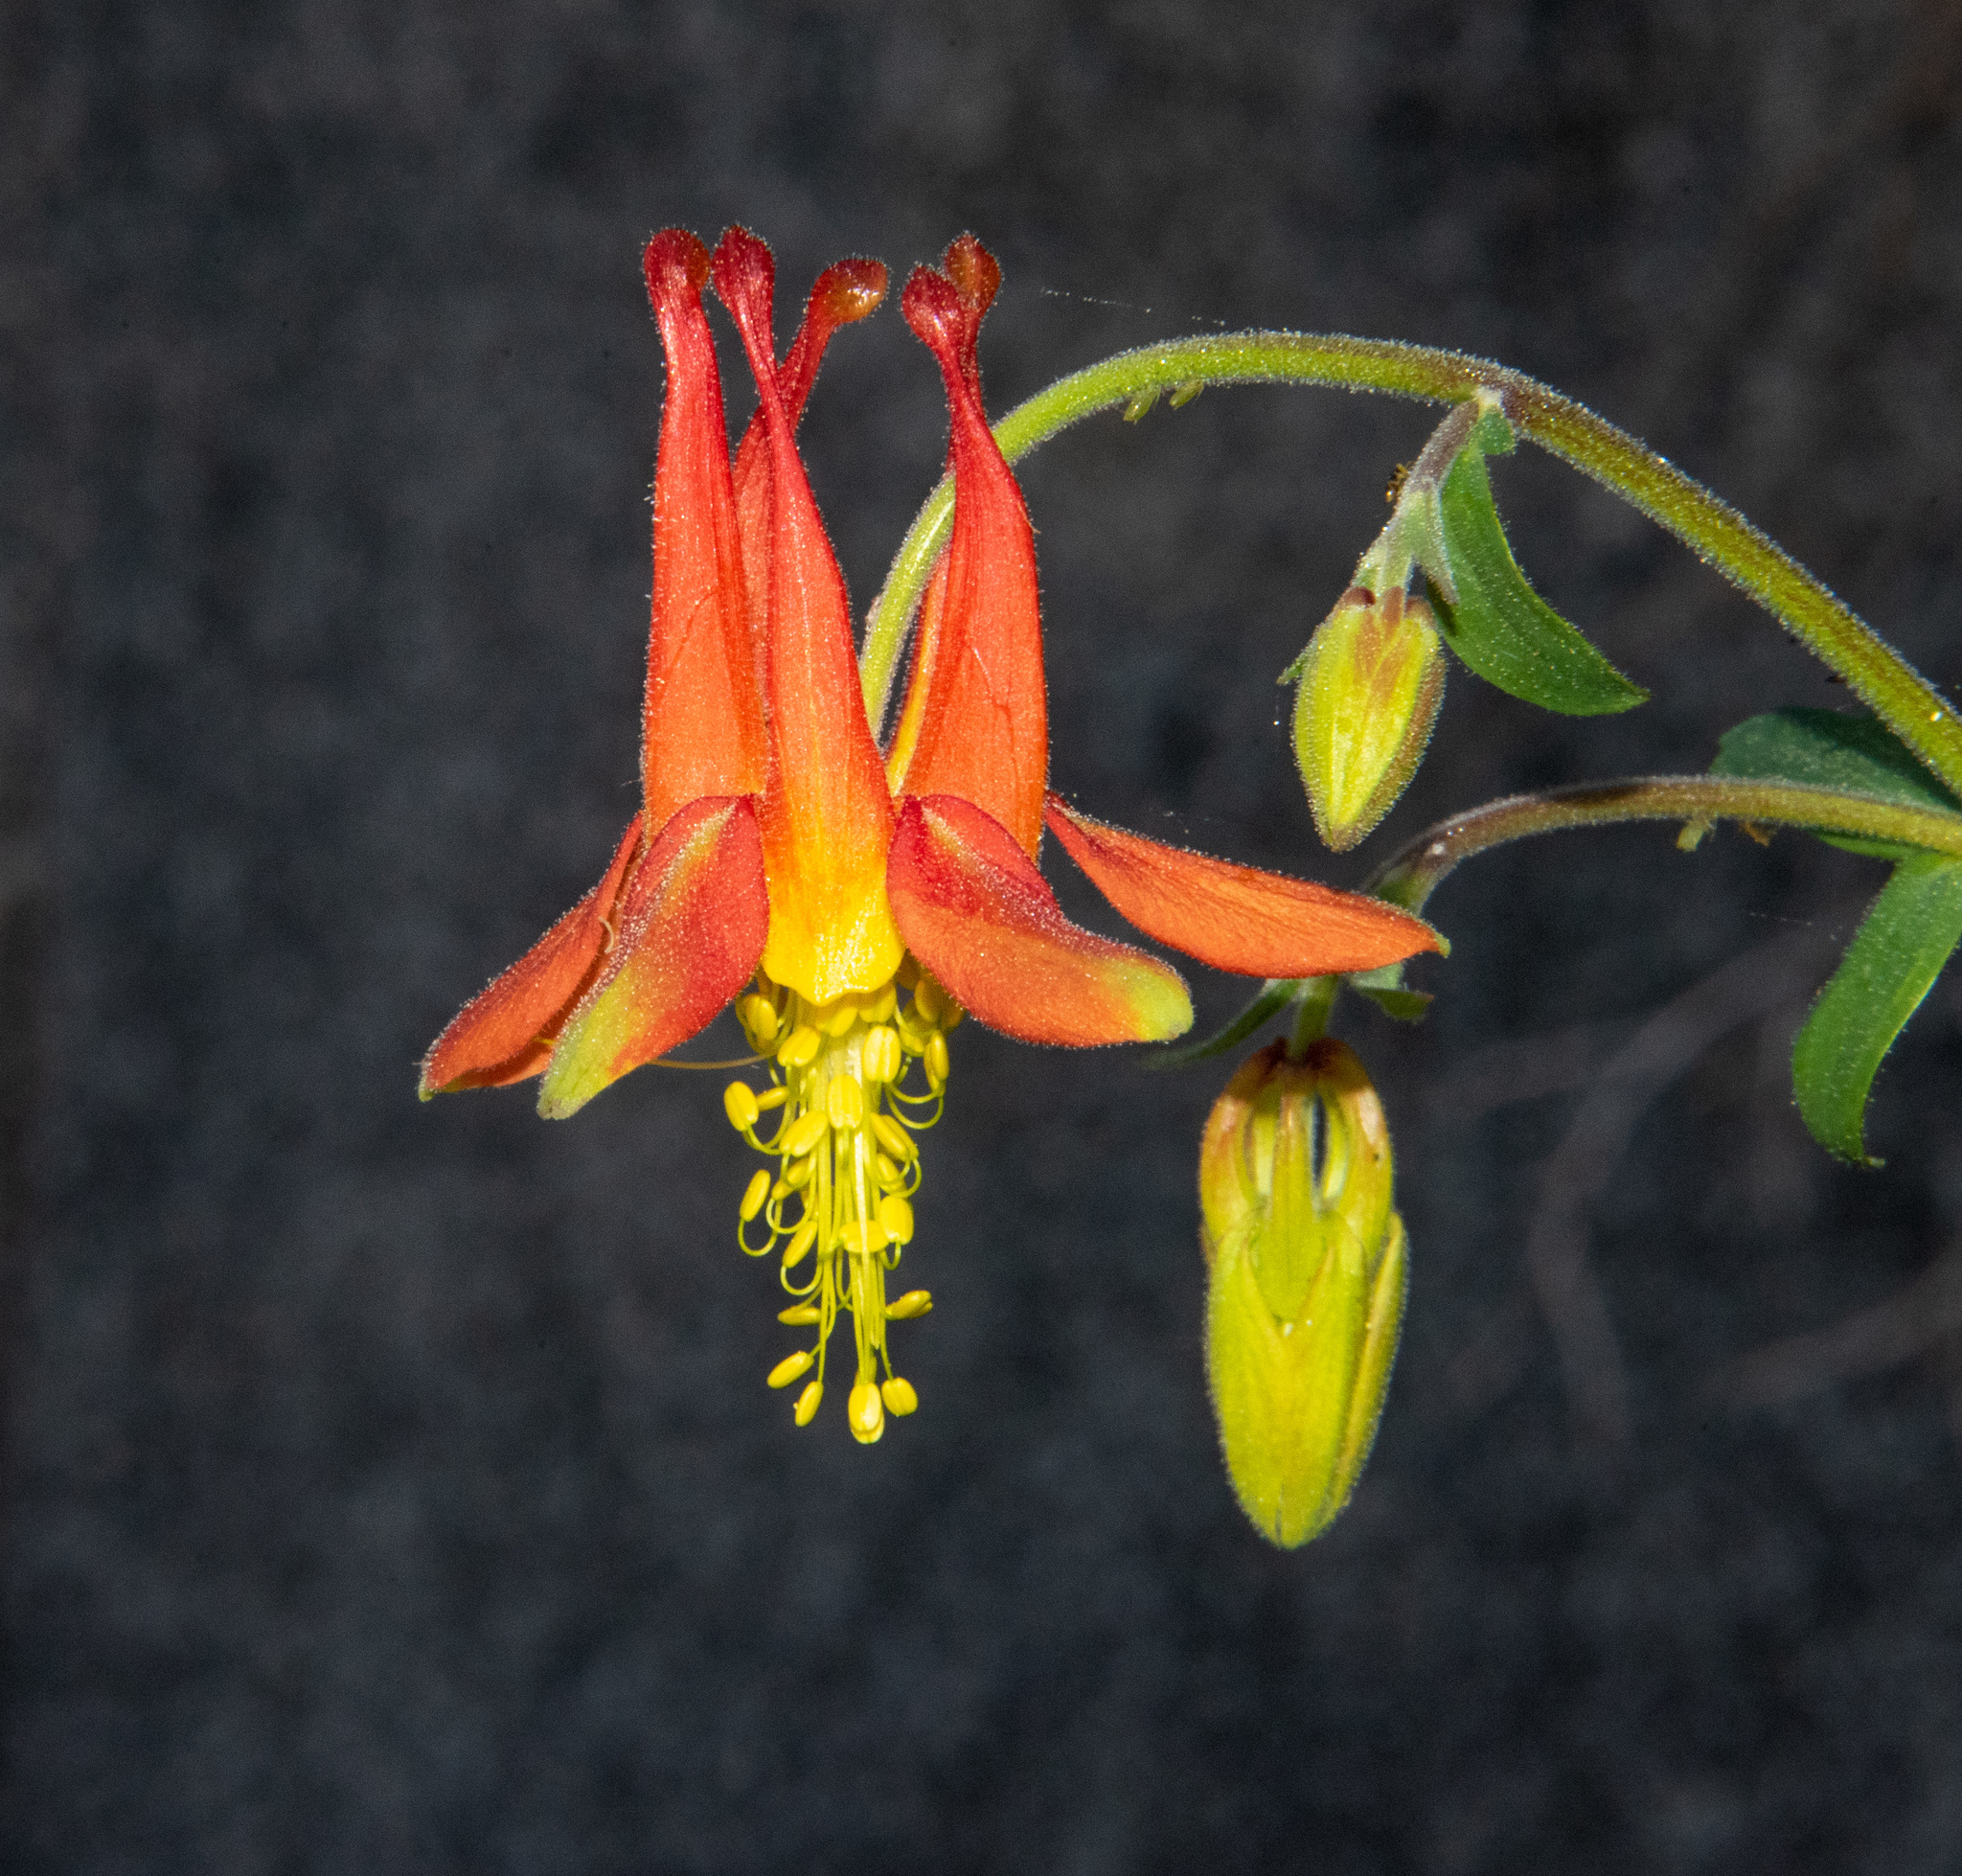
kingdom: Plantae
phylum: Tracheophyta
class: Magnoliopsida
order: Ranunculales
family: Ranunculaceae
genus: Aquilegia
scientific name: Aquilegia formosa
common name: Sitka columbine
